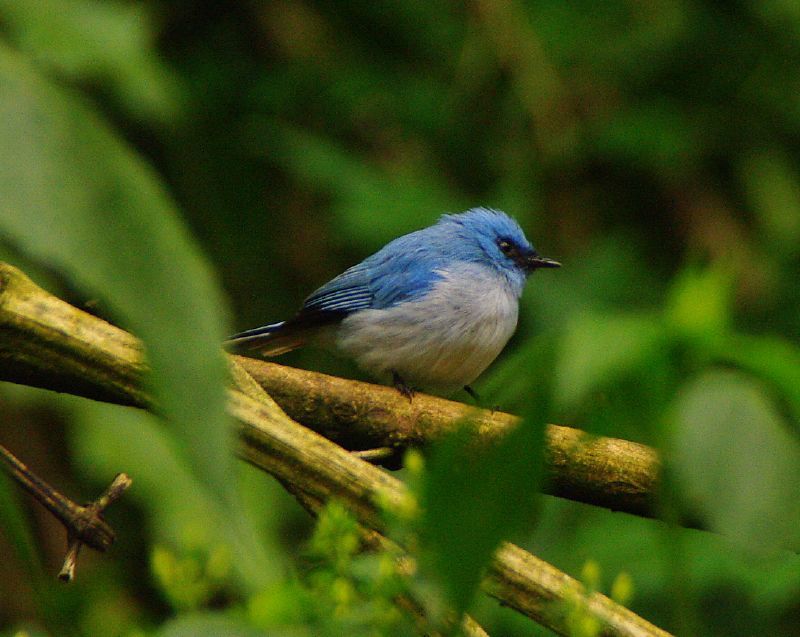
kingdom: Animalia
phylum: Chordata
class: Aves
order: Passeriformes
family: Stenostiridae
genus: Elminia
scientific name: Elminia longicauda
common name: African blue flycatcher
